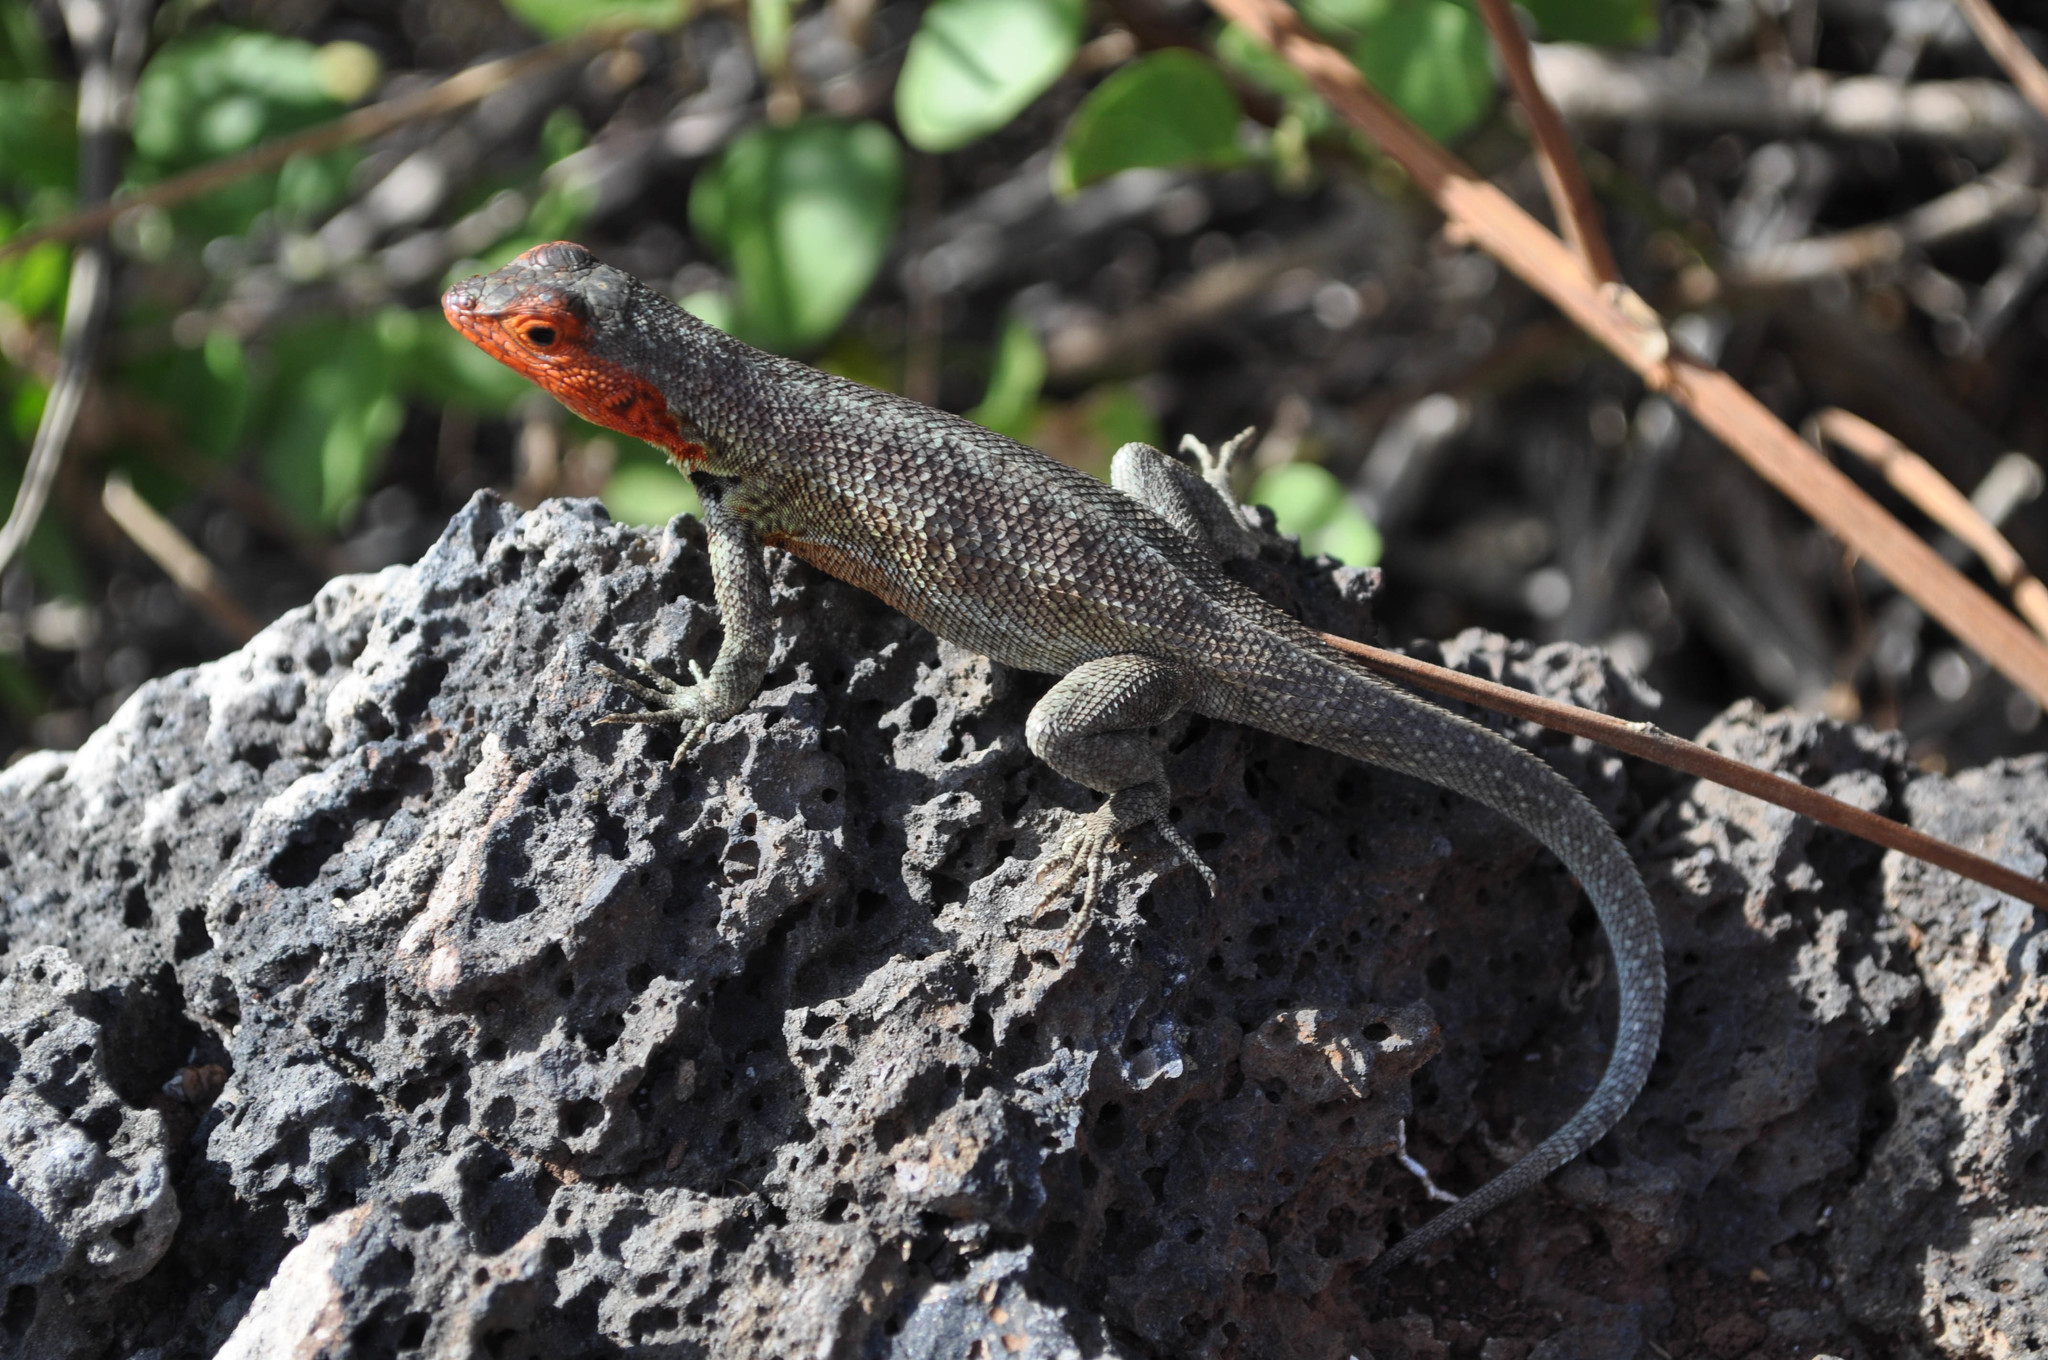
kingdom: Animalia
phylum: Chordata
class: Squamata
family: Tropiduridae
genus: Microlophus
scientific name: Microlophus indefatigabilis
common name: Galapagos lava lizard
